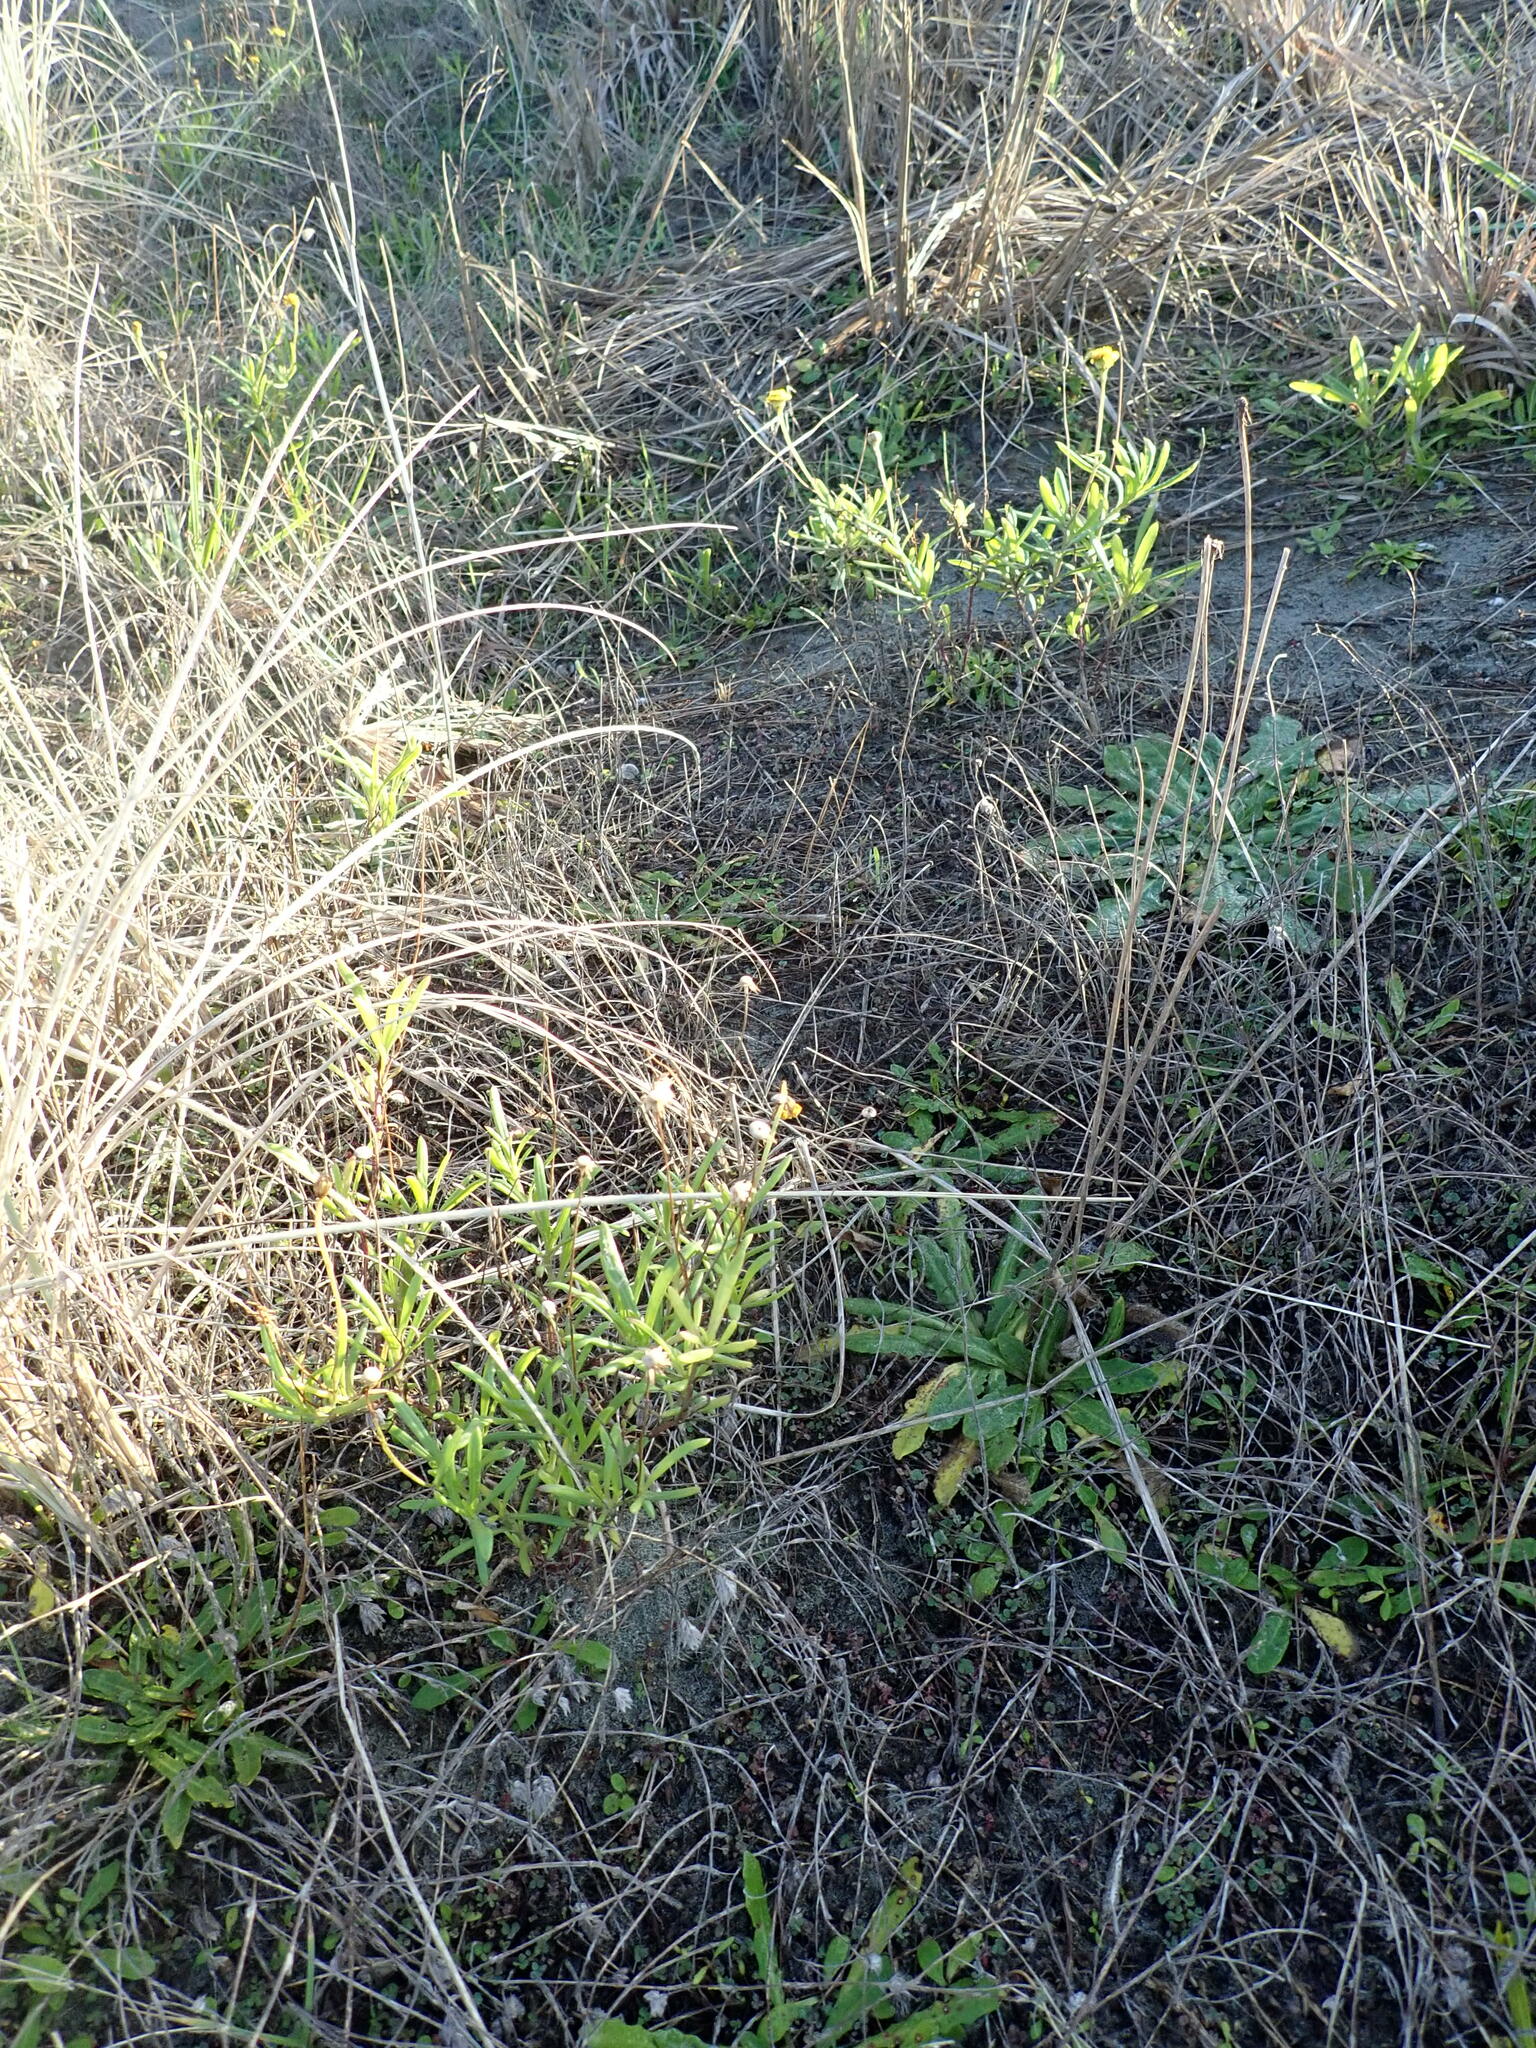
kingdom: Plantae
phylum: Tracheophyta
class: Magnoliopsida
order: Asterales
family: Asteraceae
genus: Senecio
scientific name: Senecio skirrhodon
